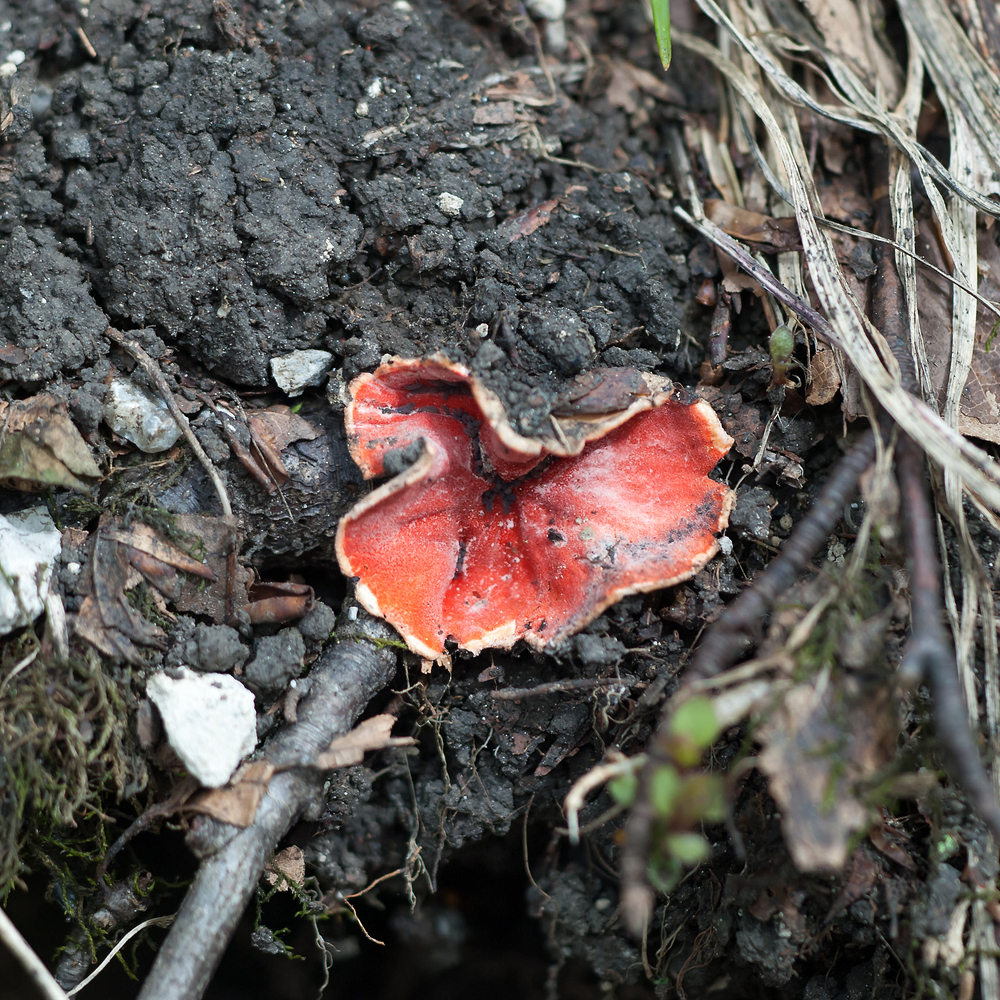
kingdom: Fungi
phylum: Ascomycota
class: Pezizomycetes
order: Pezizales
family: Sarcoscyphaceae
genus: Sarcoscypha
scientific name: Sarcoscypha
